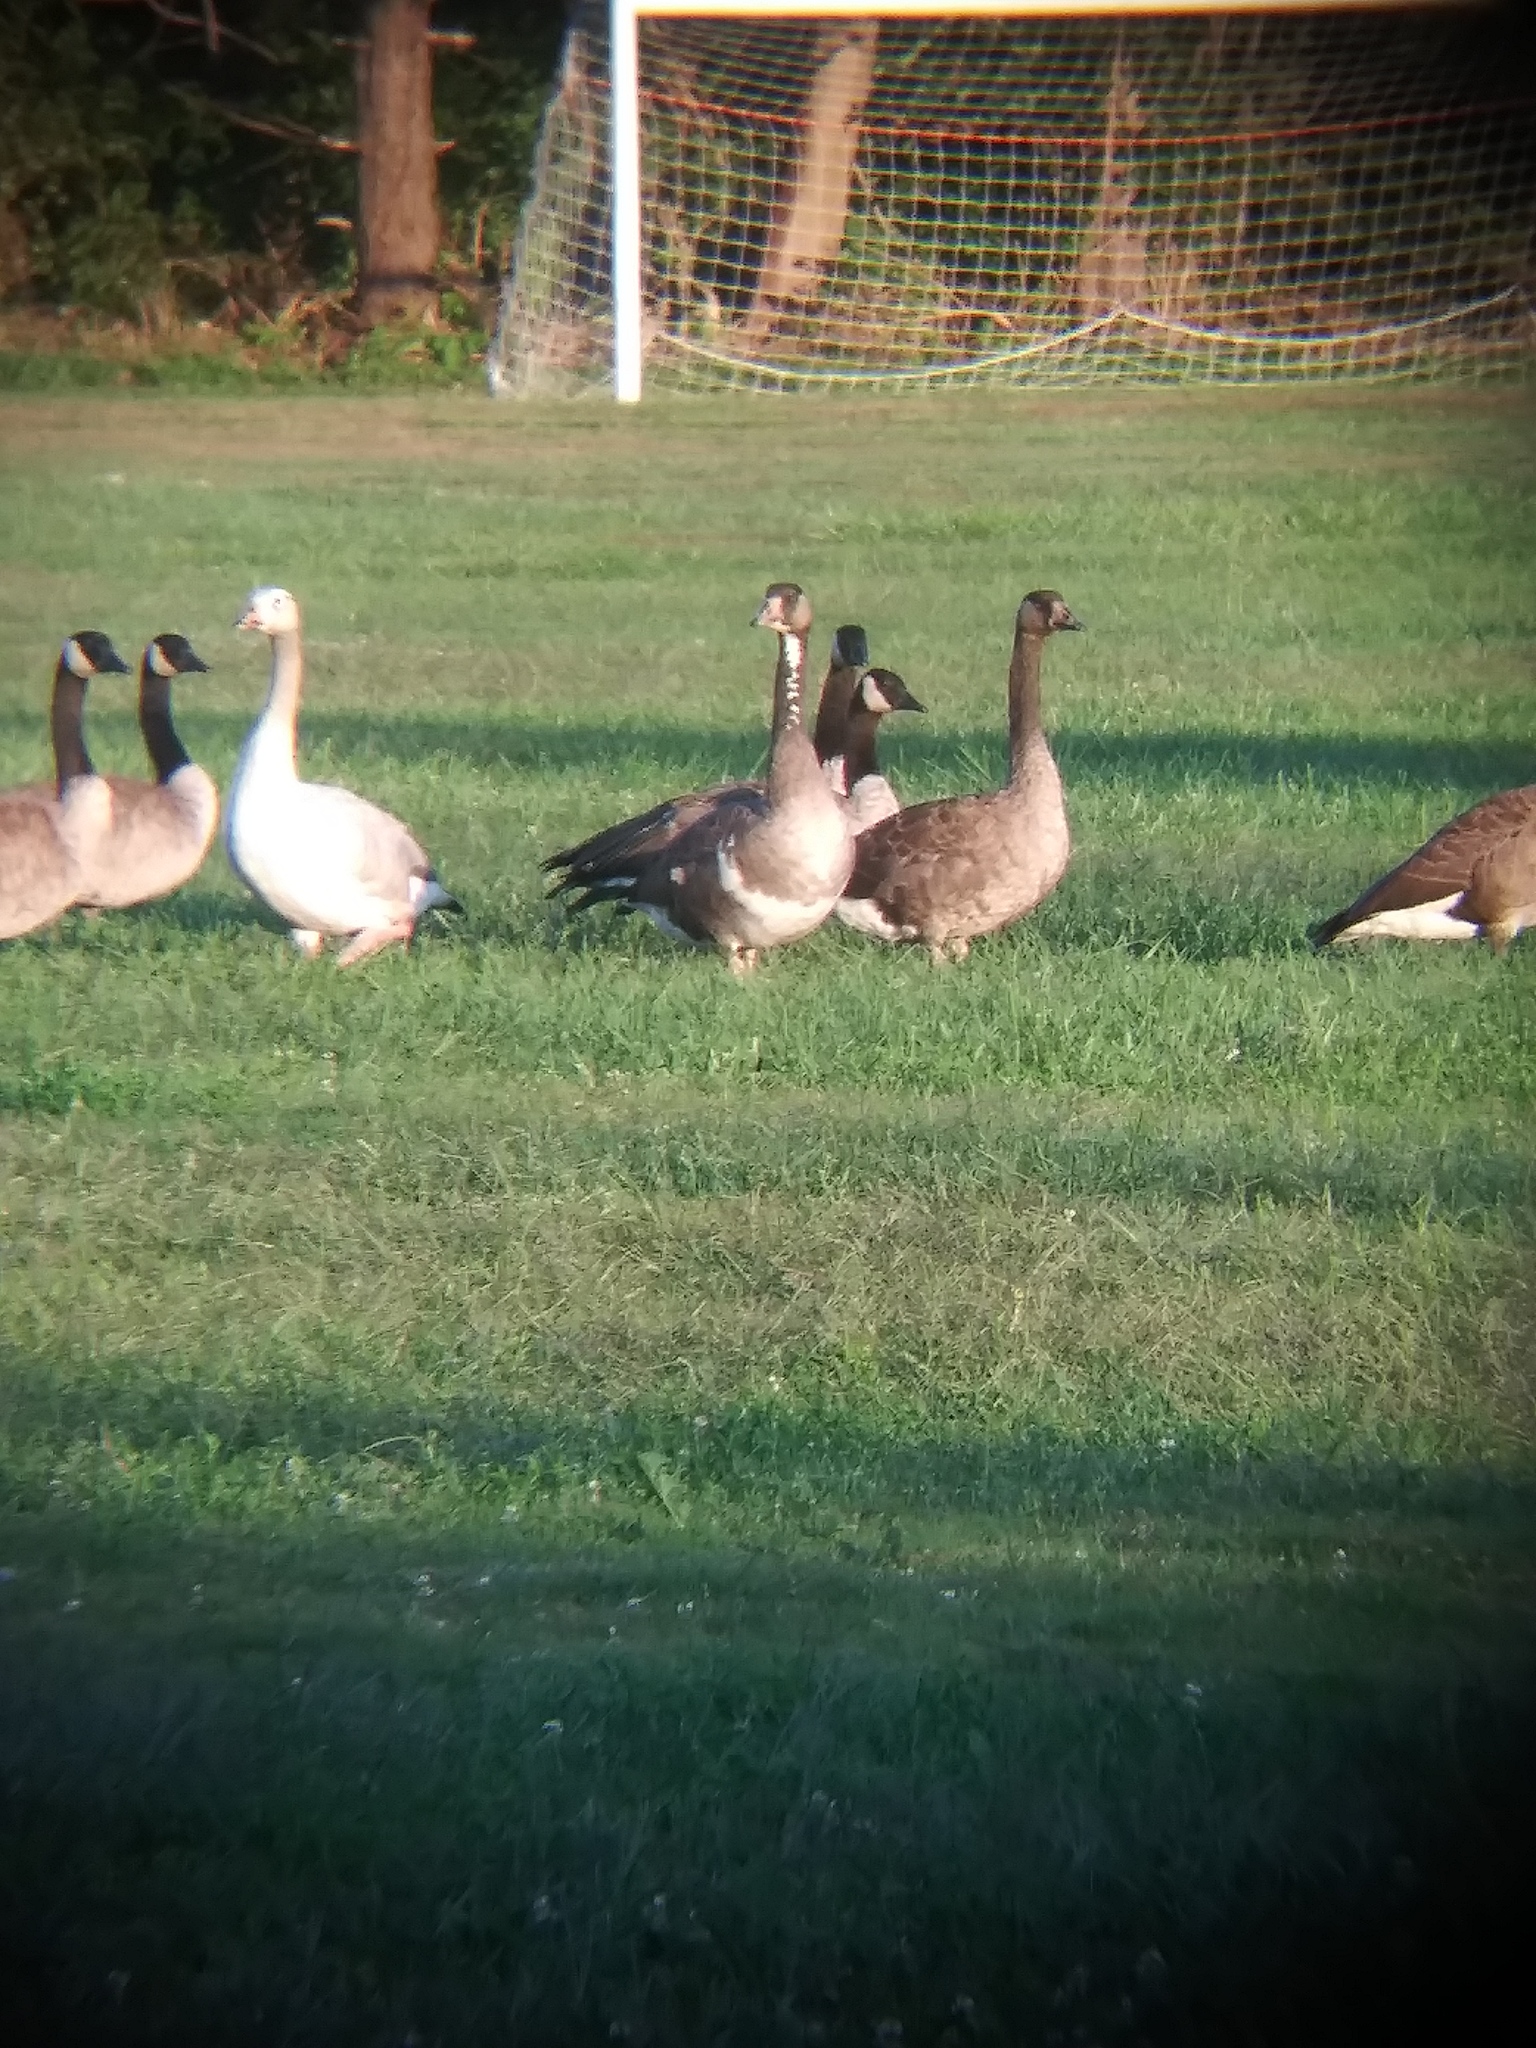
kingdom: Animalia
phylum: Chordata
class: Aves
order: Anseriformes
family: Anatidae
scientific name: Anatidae
